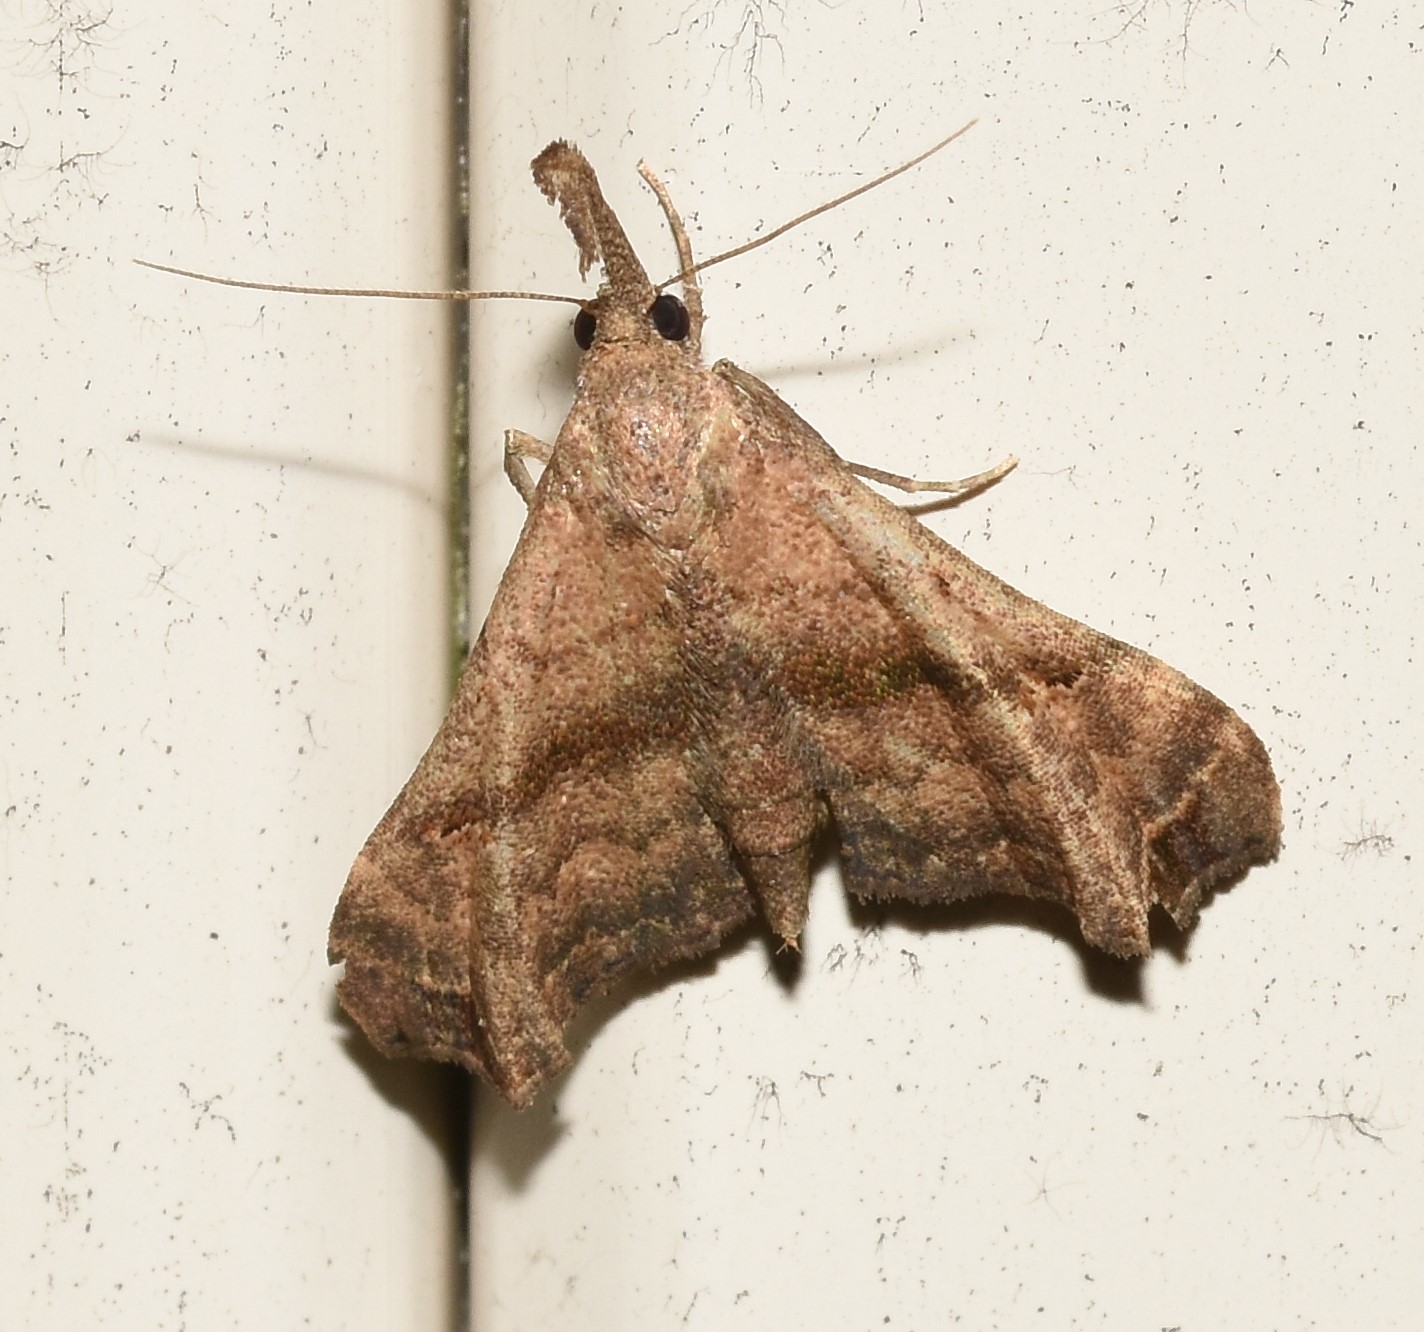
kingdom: Animalia
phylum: Arthropoda
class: Insecta
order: Lepidoptera
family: Erebidae
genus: Palthis
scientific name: Palthis asopialis
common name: Faint-spotted palthis moth
